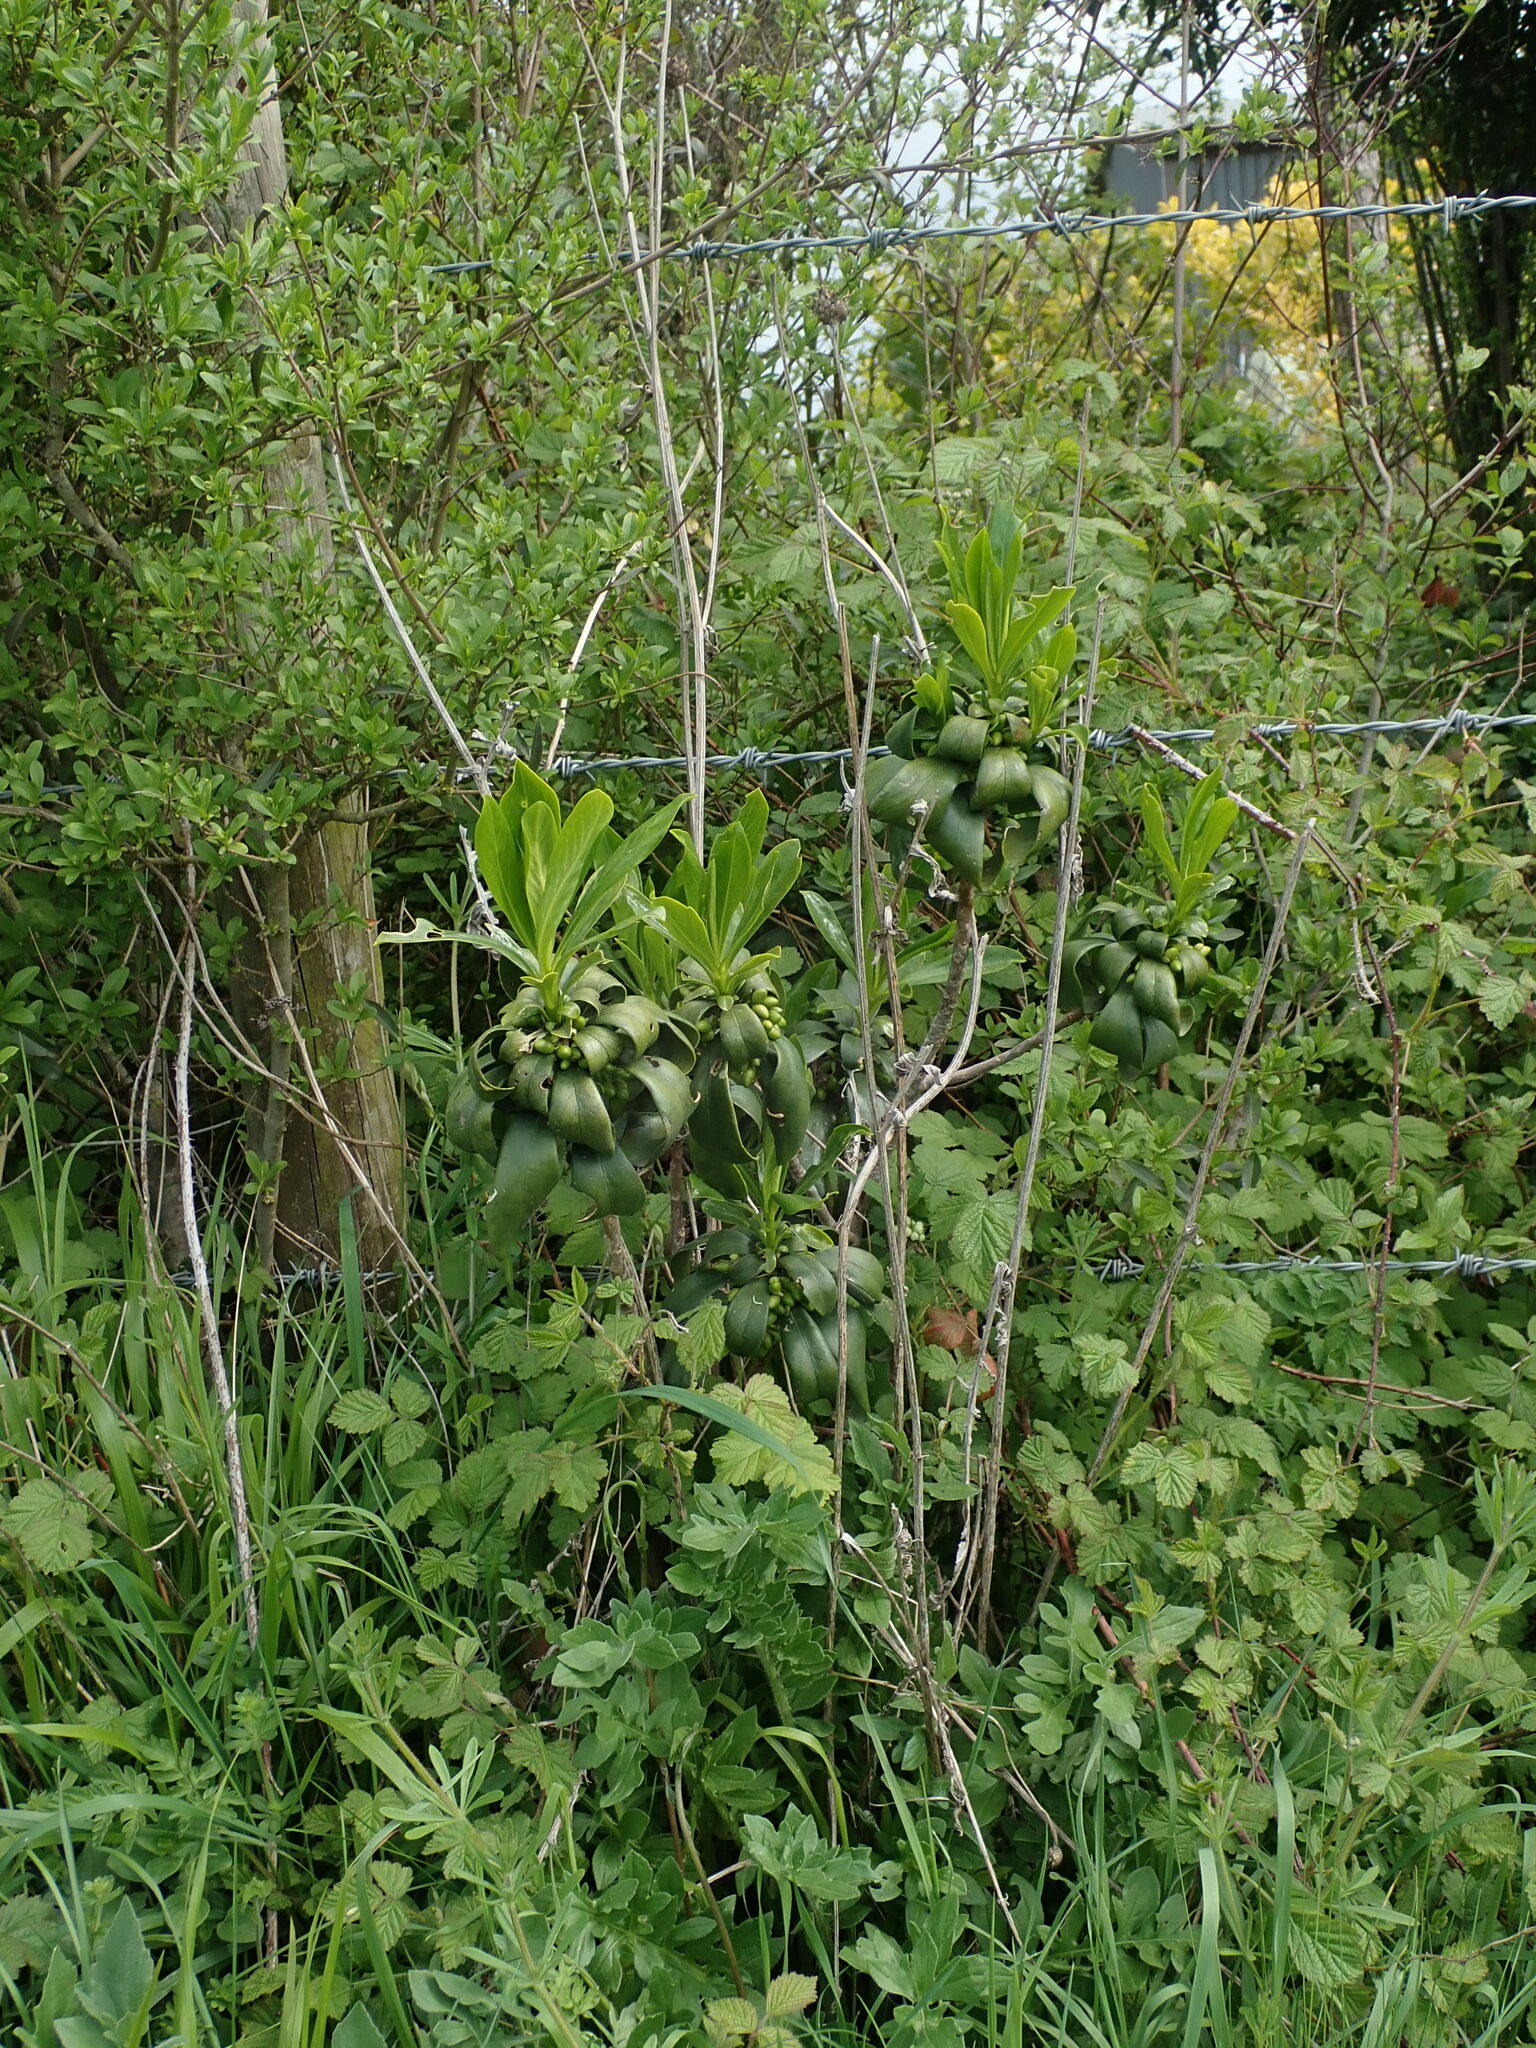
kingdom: Plantae
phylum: Tracheophyta
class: Magnoliopsida
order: Malvales
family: Thymelaeaceae
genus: Daphne
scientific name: Daphne laureola
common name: Spurge-laurel
